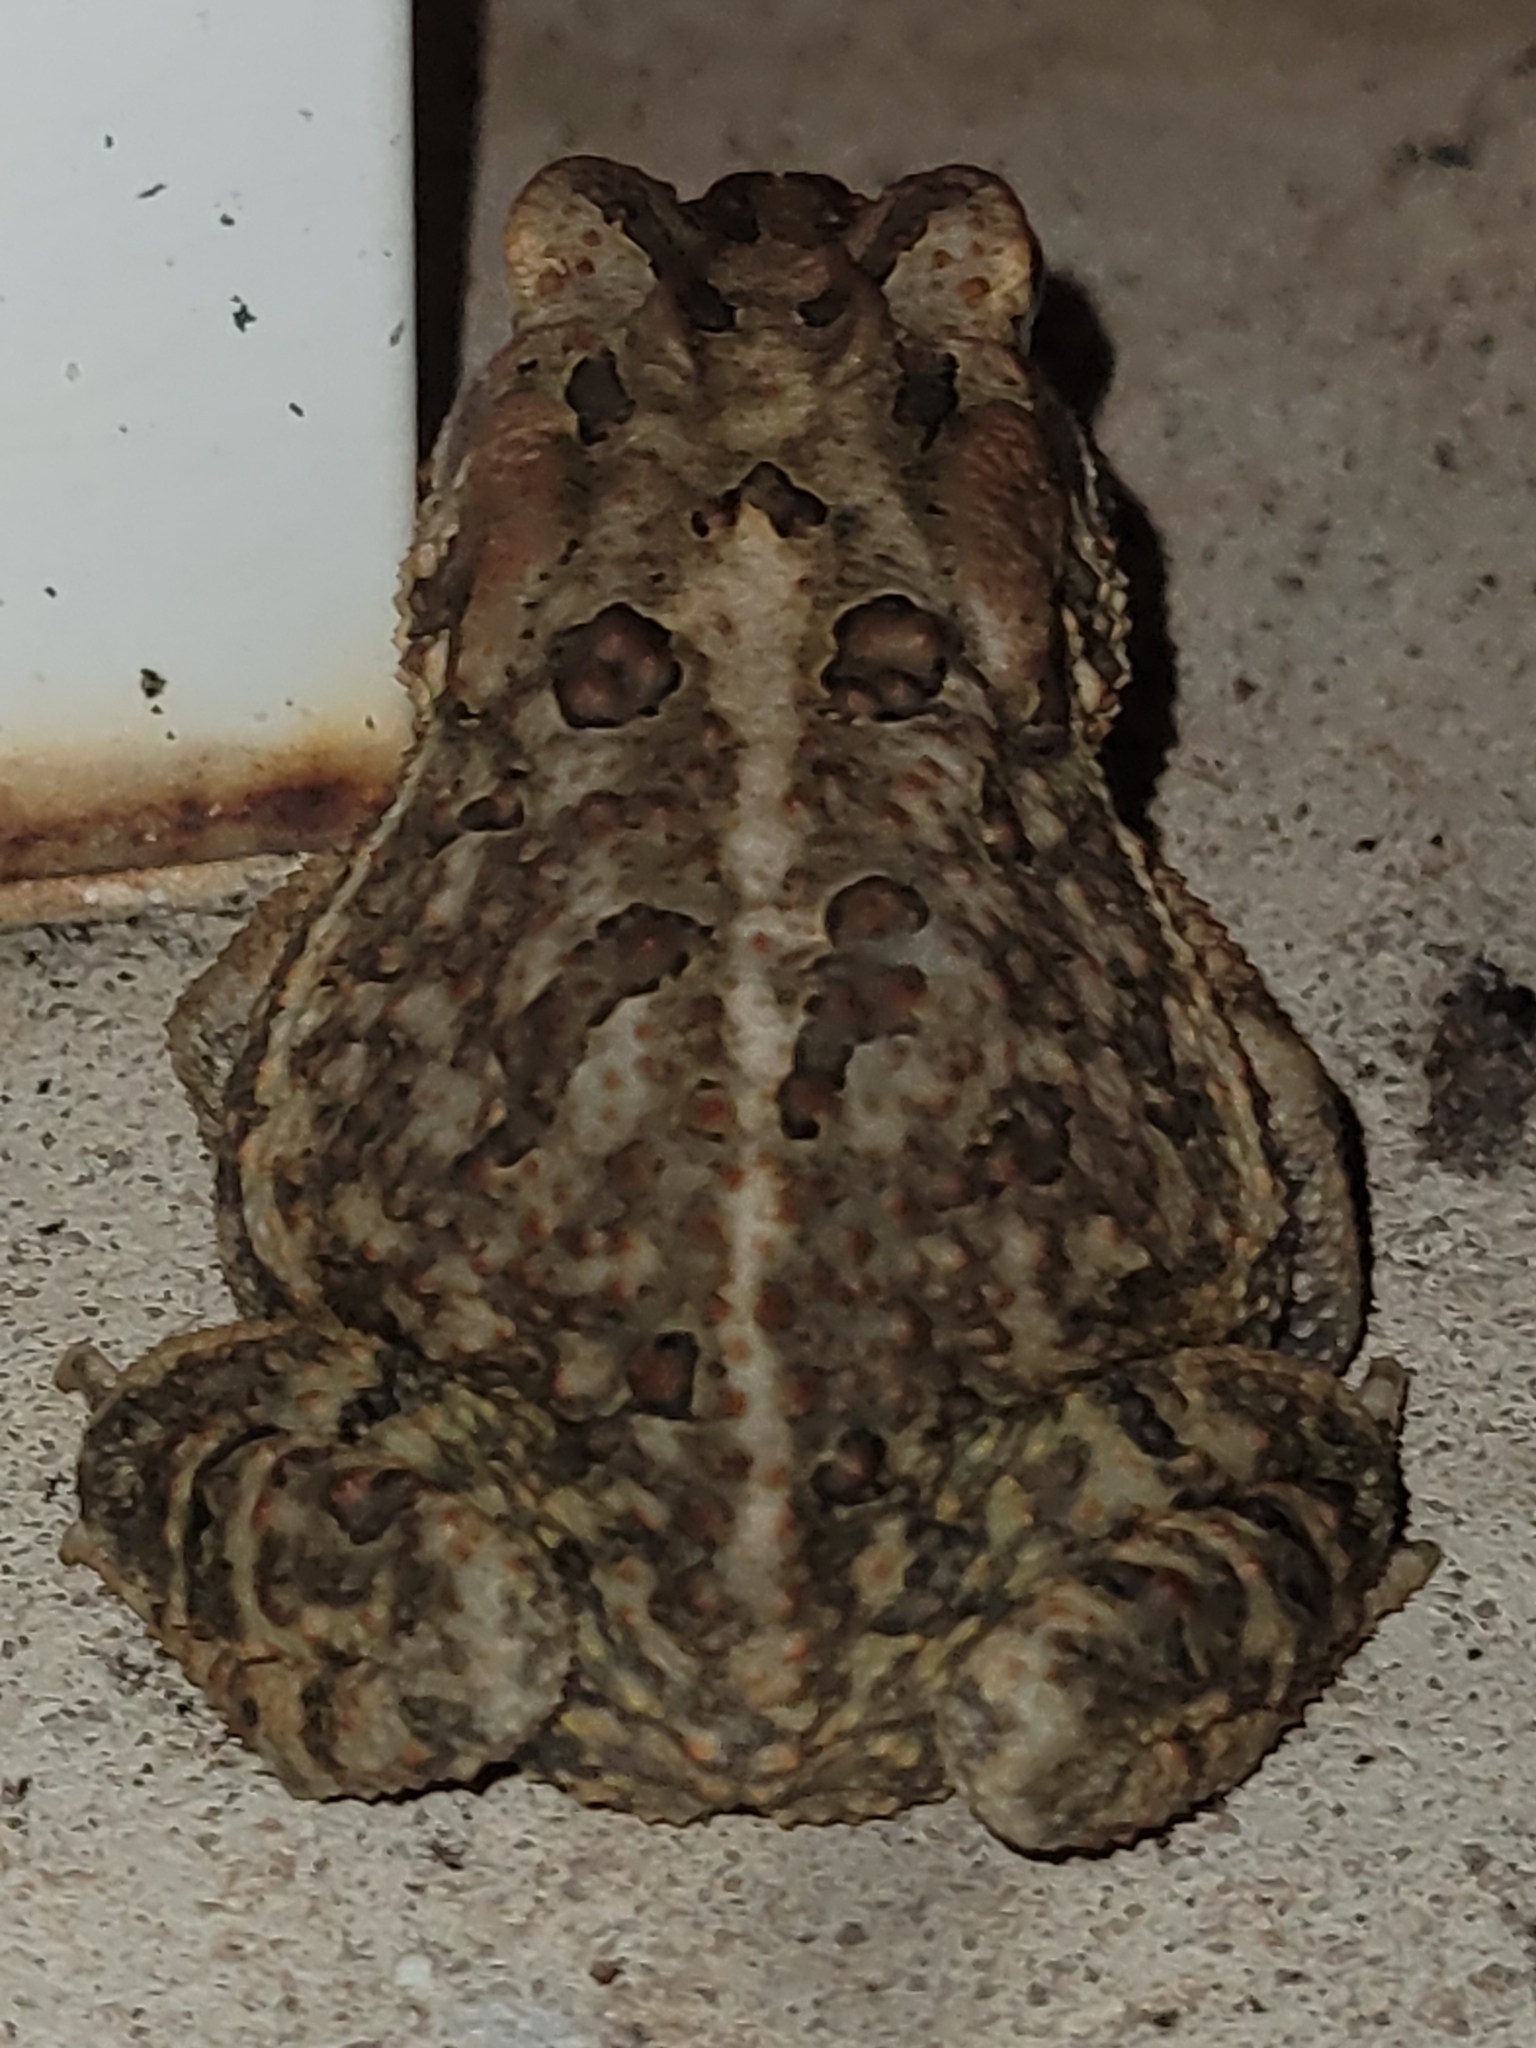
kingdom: Animalia
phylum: Chordata
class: Amphibia
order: Anura
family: Bufonidae
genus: Anaxyrus
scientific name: Anaxyrus terrestris
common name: Southern toad
